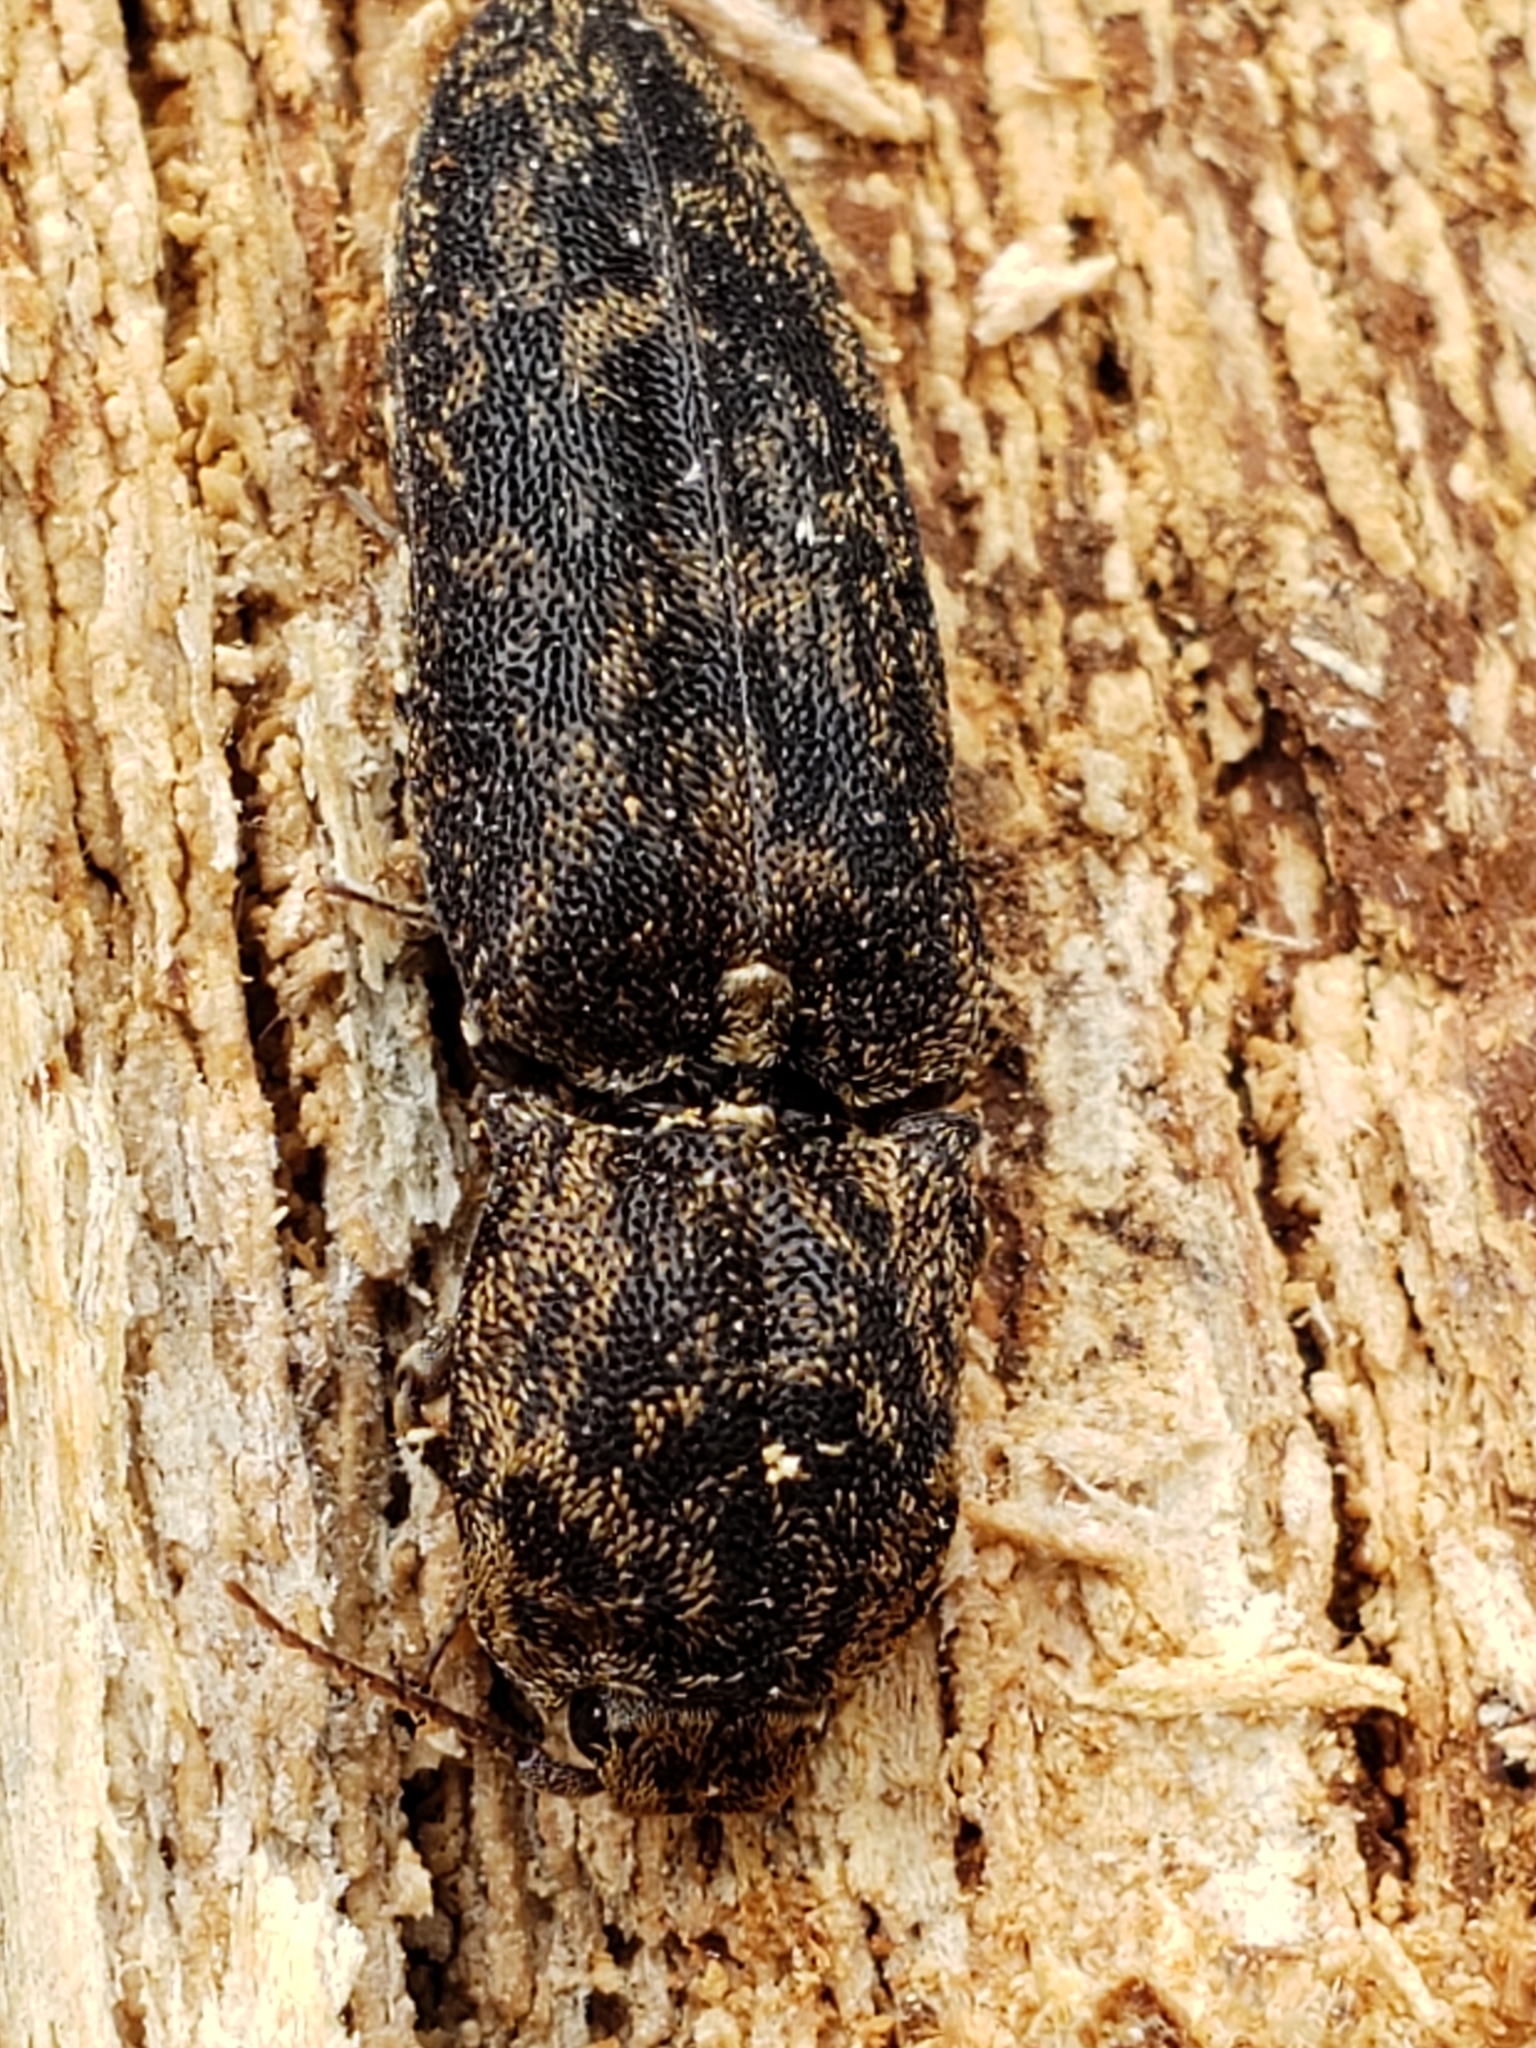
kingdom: Animalia
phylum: Arthropoda
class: Insecta
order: Coleoptera
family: Elateridae
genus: Lacon
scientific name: Lacon marmoratus
